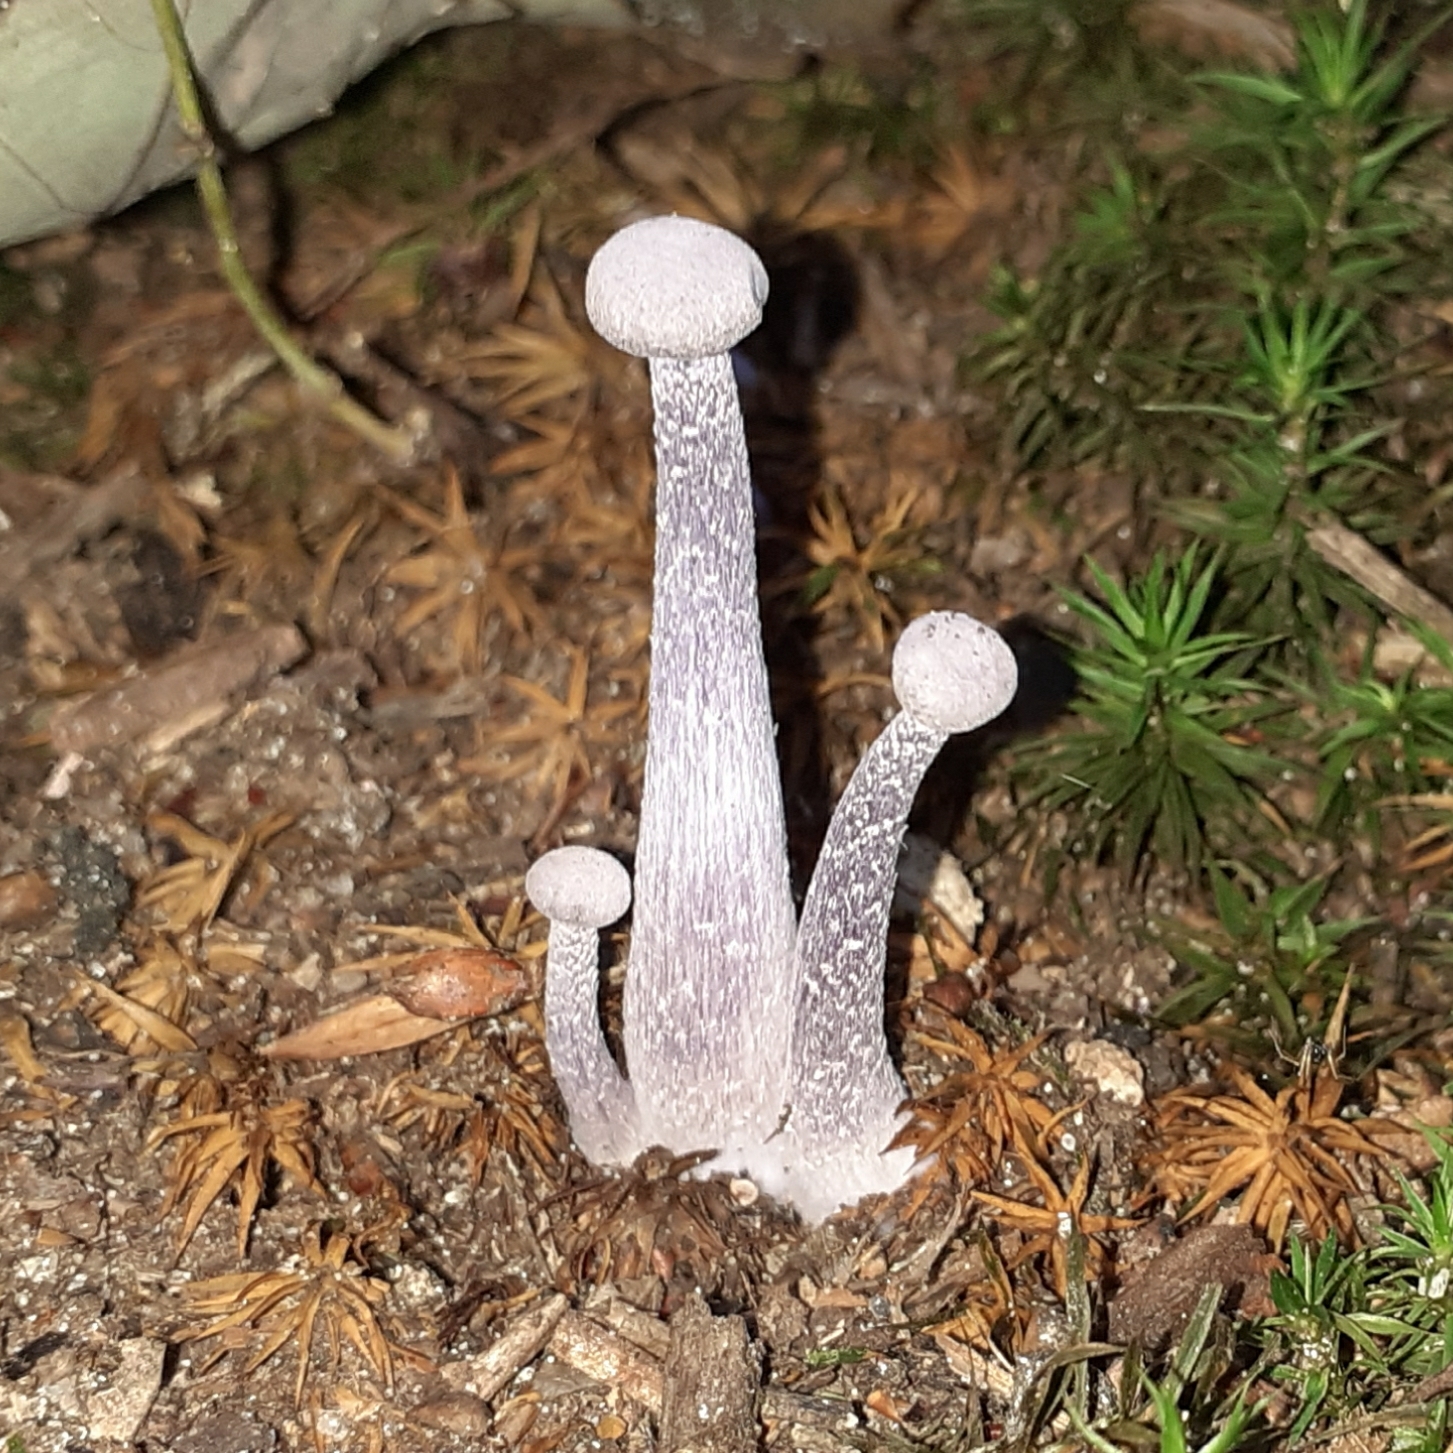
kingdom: Fungi
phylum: Basidiomycota
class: Agaricomycetes
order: Agaricales
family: Hydnangiaceae
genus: Laccaria
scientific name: Laccaria amethystina
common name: Amethyst deceiver
